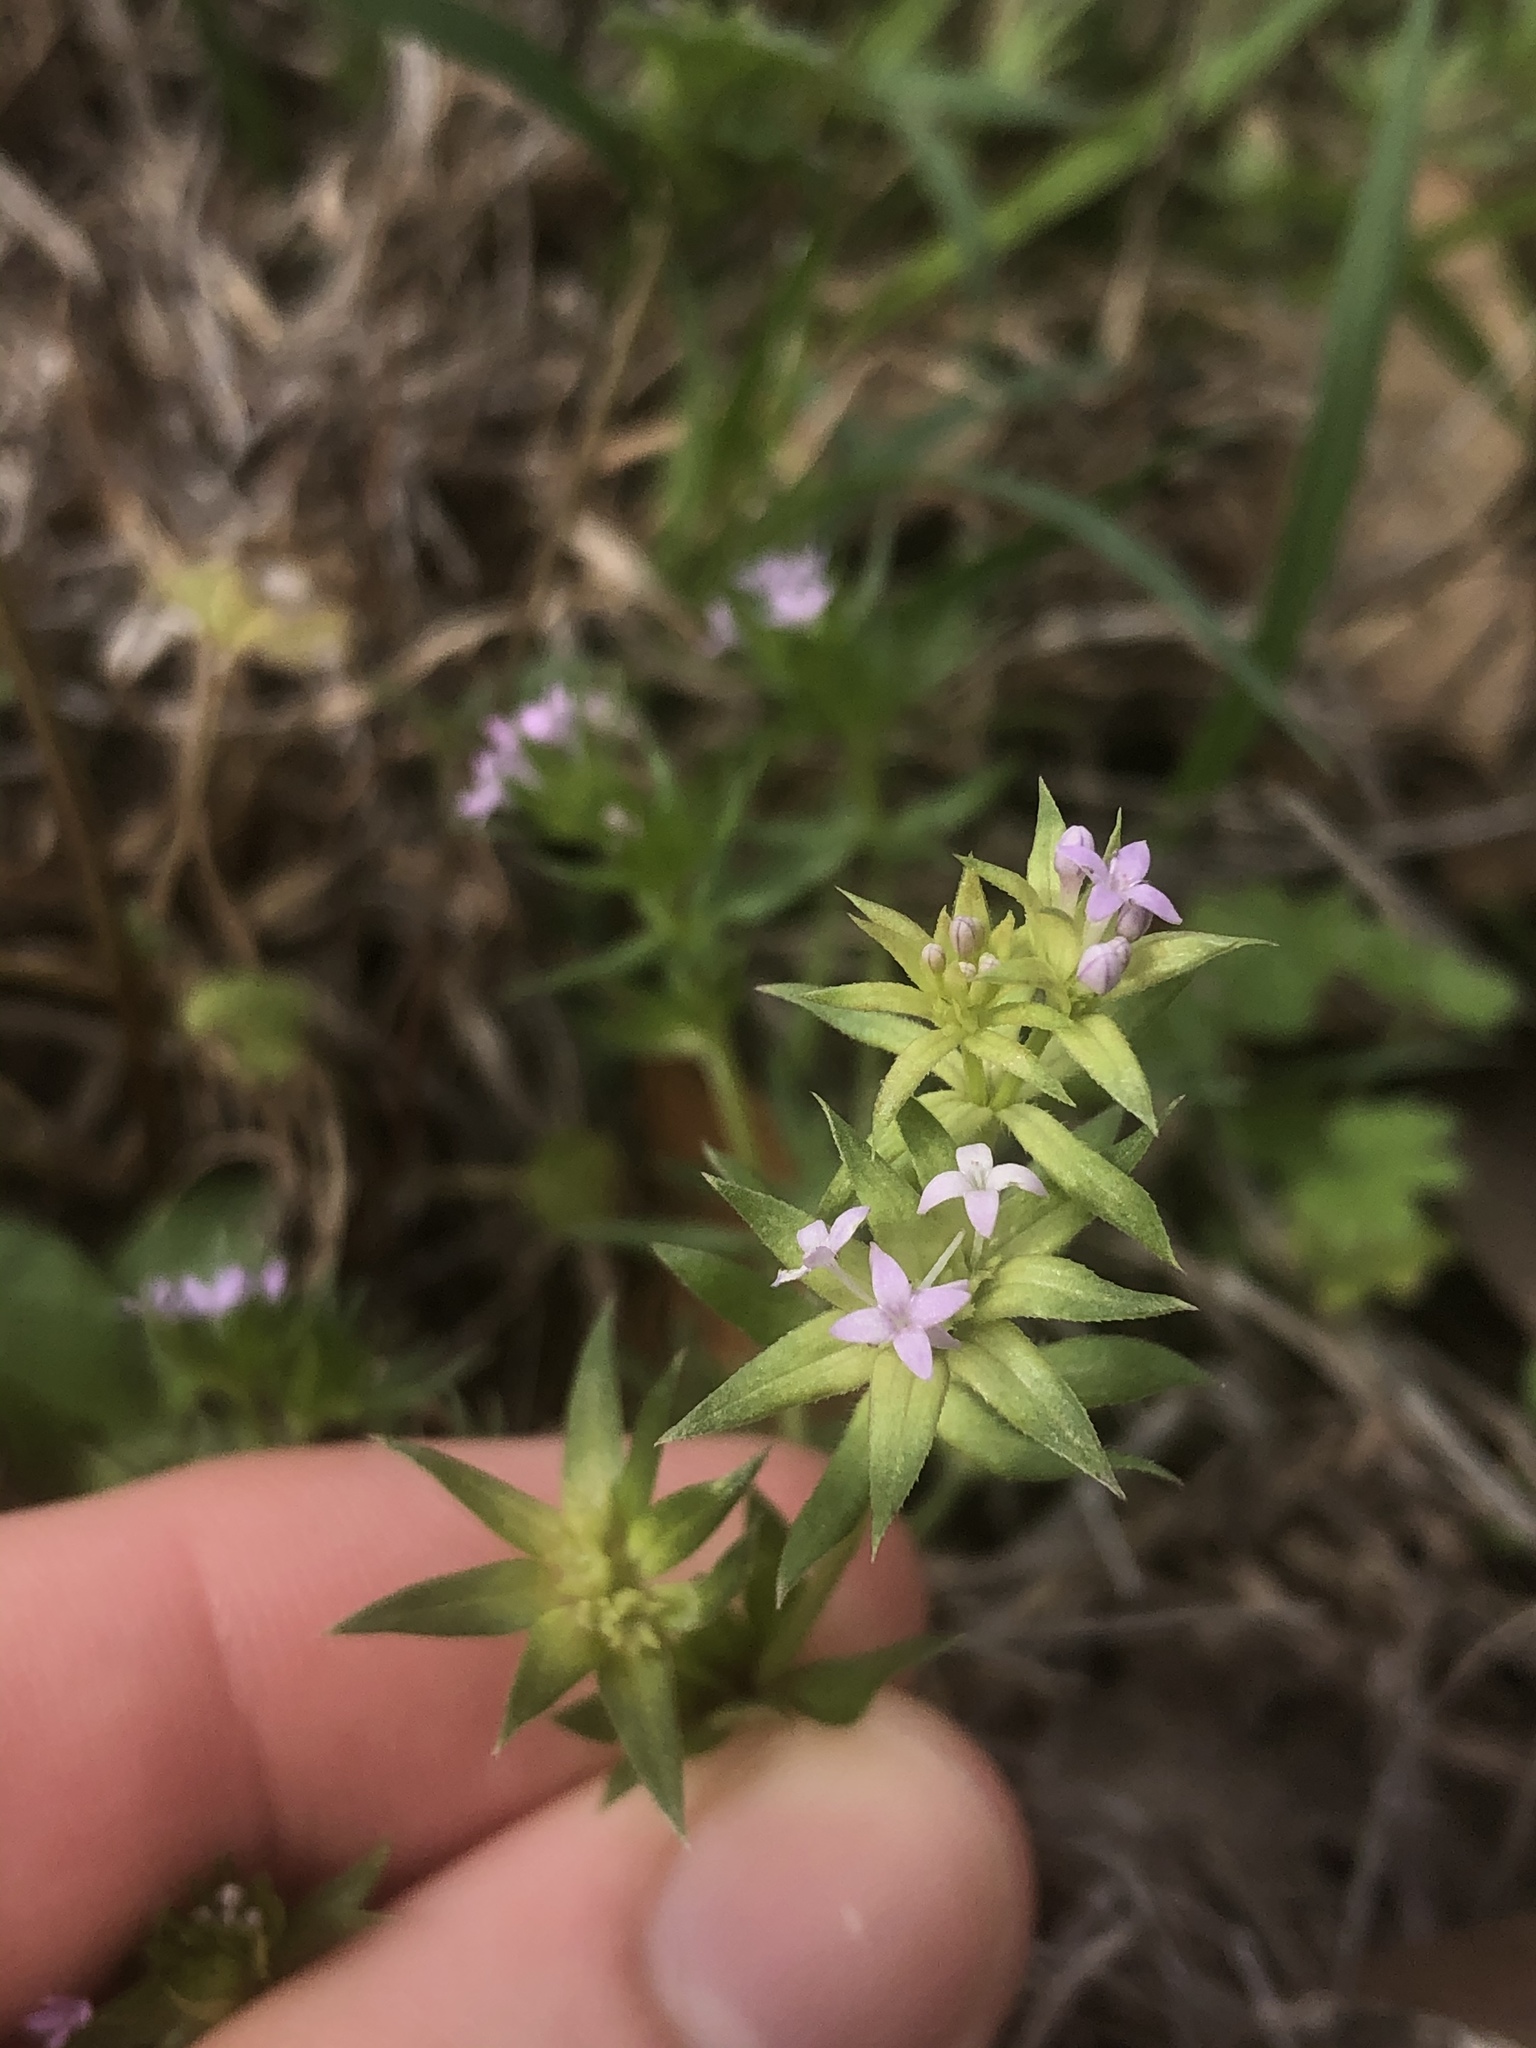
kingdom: Plantae
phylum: Tracheophyta
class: Magnoliopsida
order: Gentianales
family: Rubiaceae
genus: Sherardia
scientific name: Sherardia arvensis
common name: Field madder
